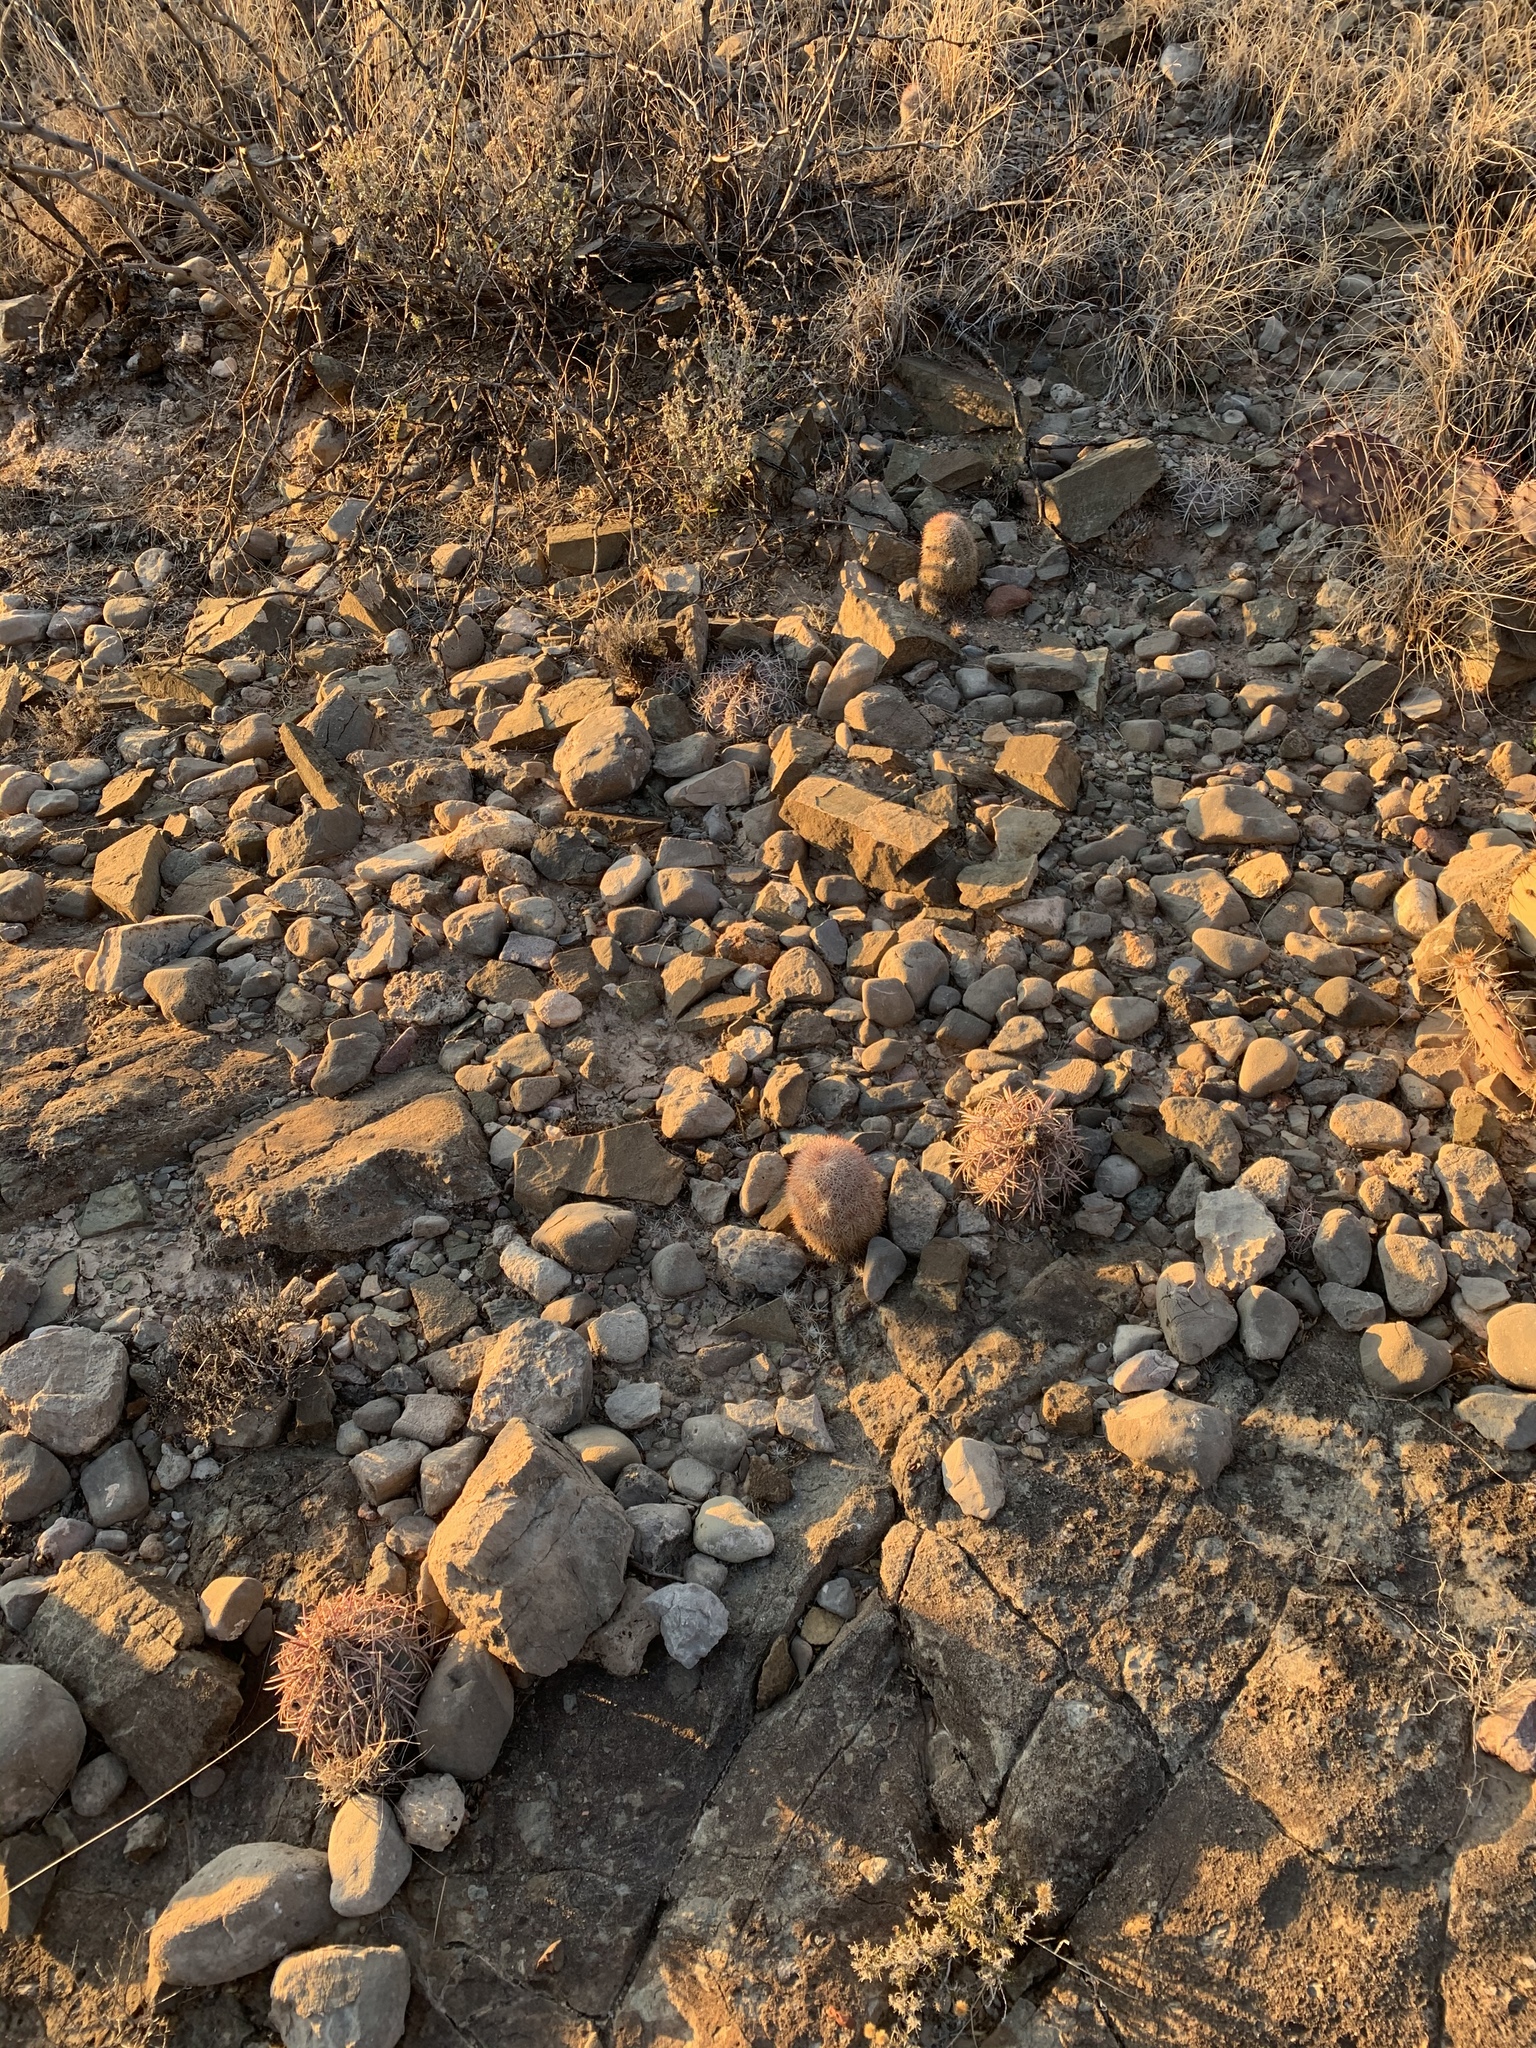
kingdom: Plantae
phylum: Tracheophyta
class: Magnoliopsida
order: Caryophyllales
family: Cactaceae
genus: Echinocereus
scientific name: Echinocereus dasyacanthus
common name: Spiny hedgehog cactus
